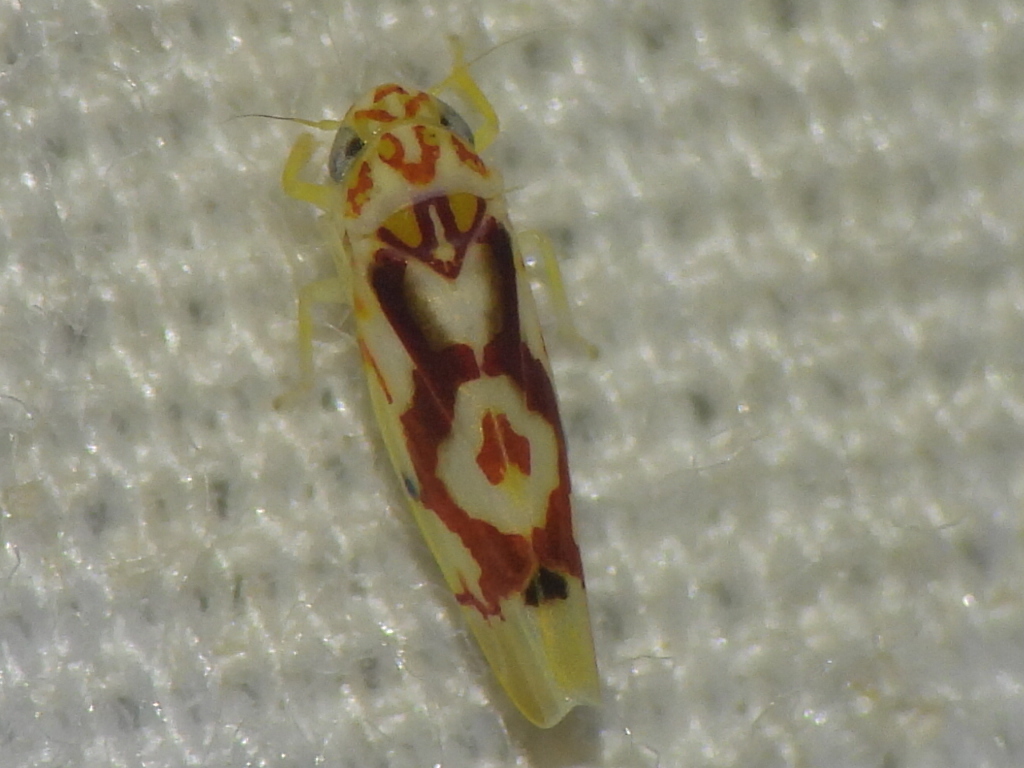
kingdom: Animalia
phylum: Arthropoda
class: Insecta
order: Hemiptera
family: Cicadellidae
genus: Eratoneura
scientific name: Eratoneura ligata
